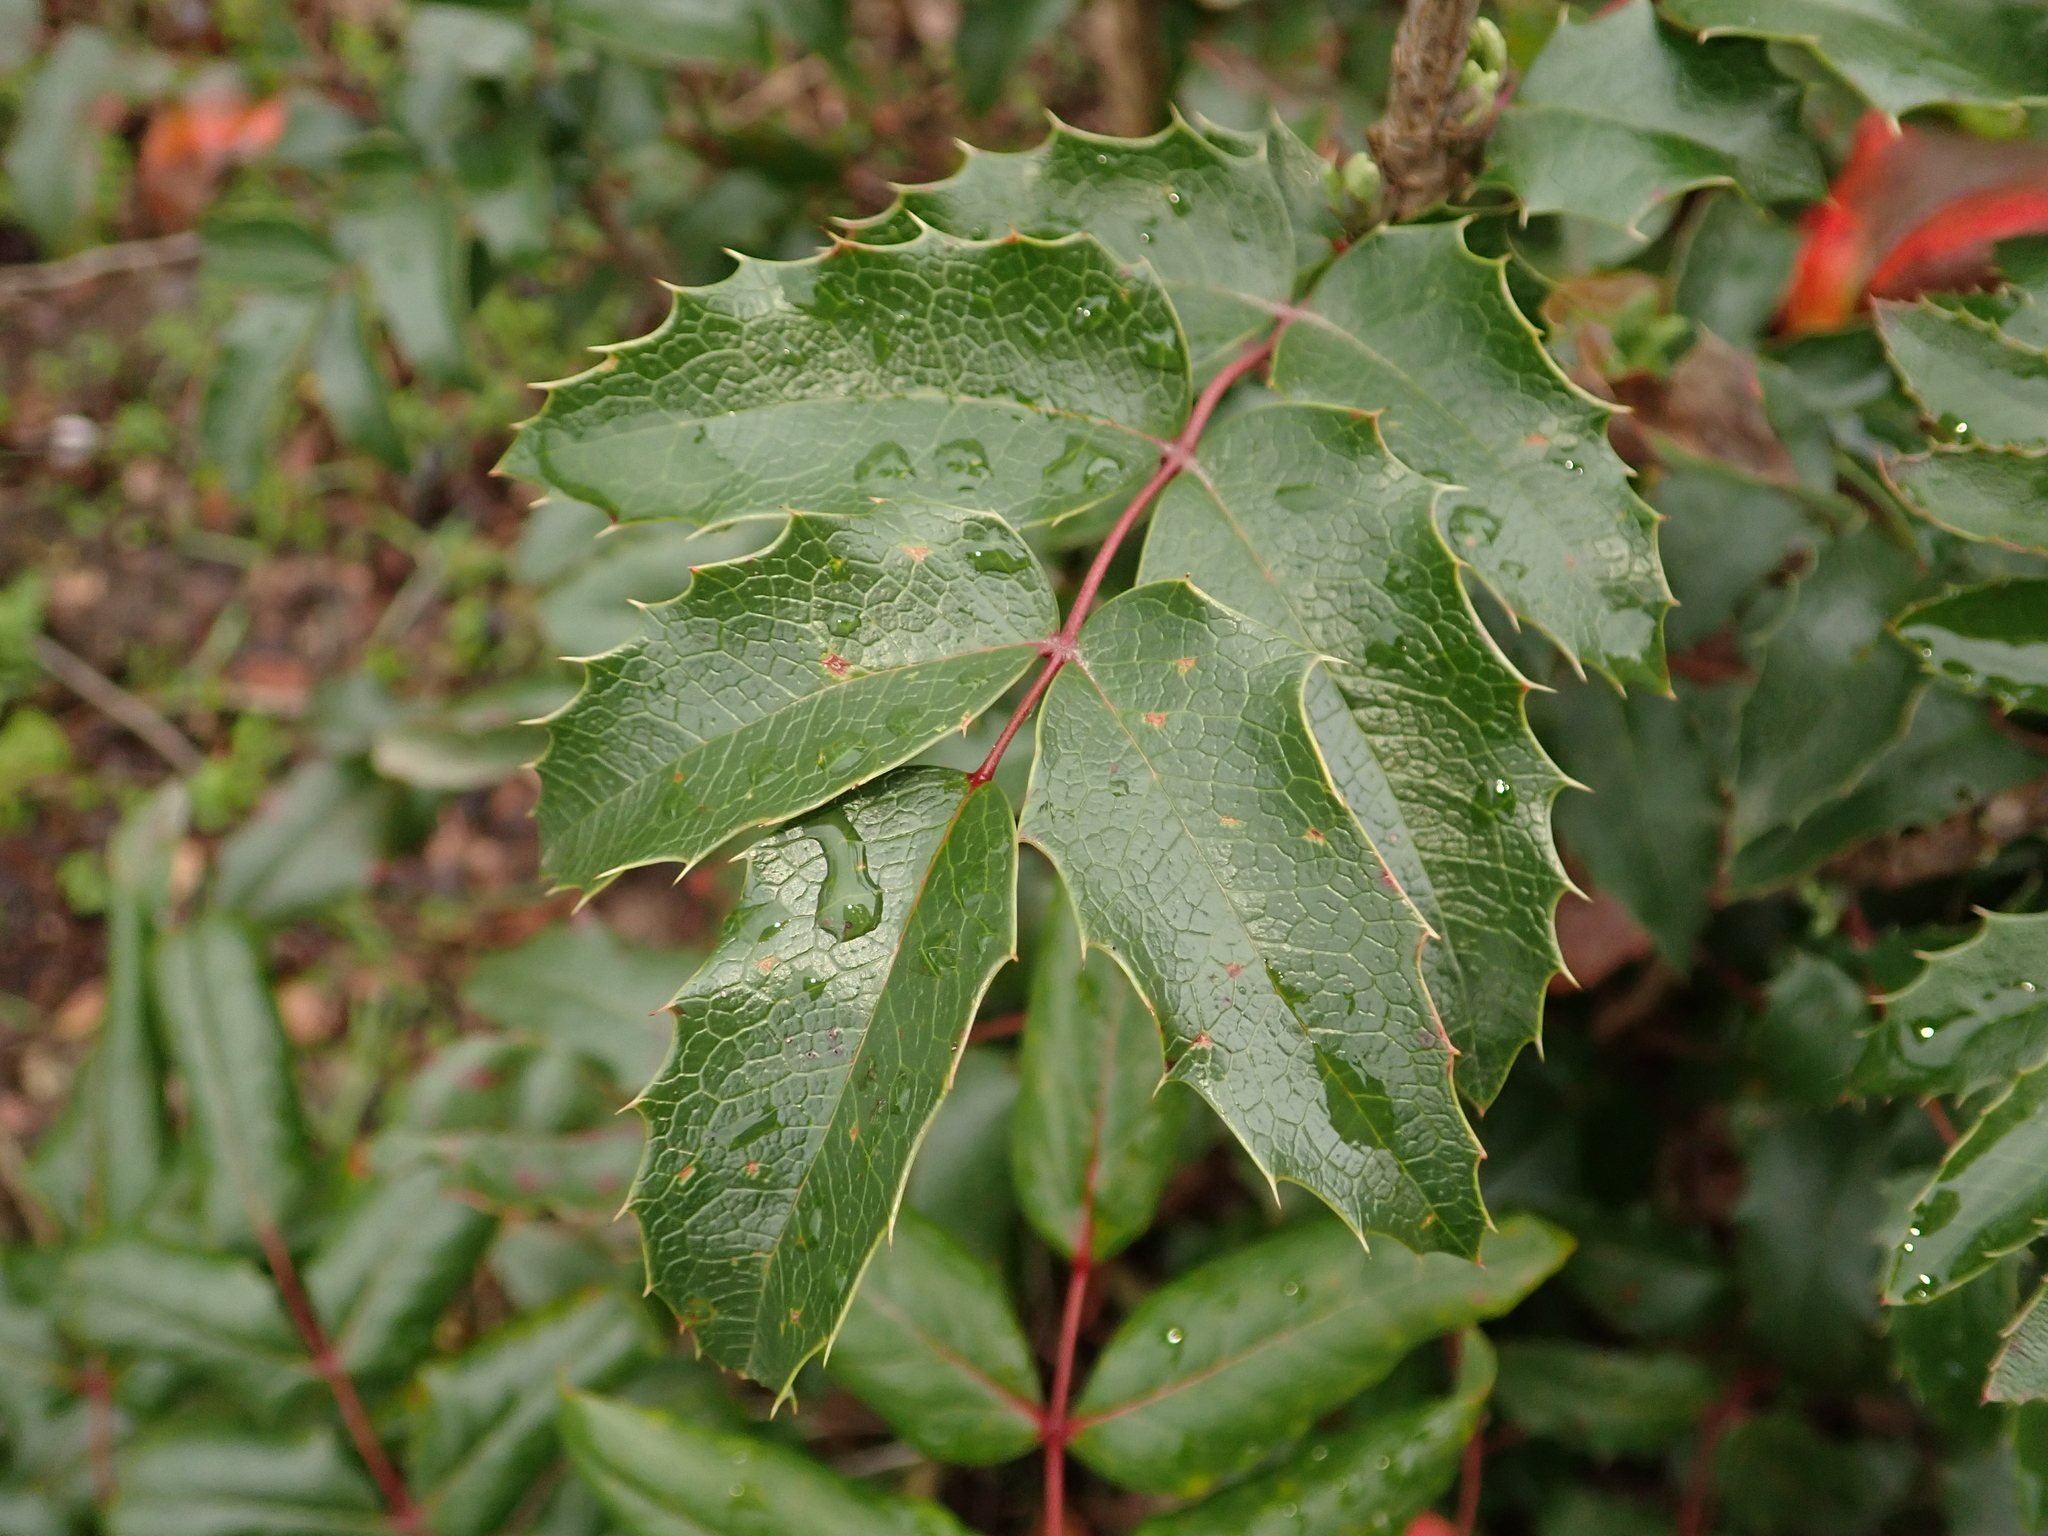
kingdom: Plantae
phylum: Tracheophyta
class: Magnoliopsida
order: Ranunculales
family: Berberidaceae
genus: Mahonia
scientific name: Mahonia aquifolium
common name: Oregon-grape
